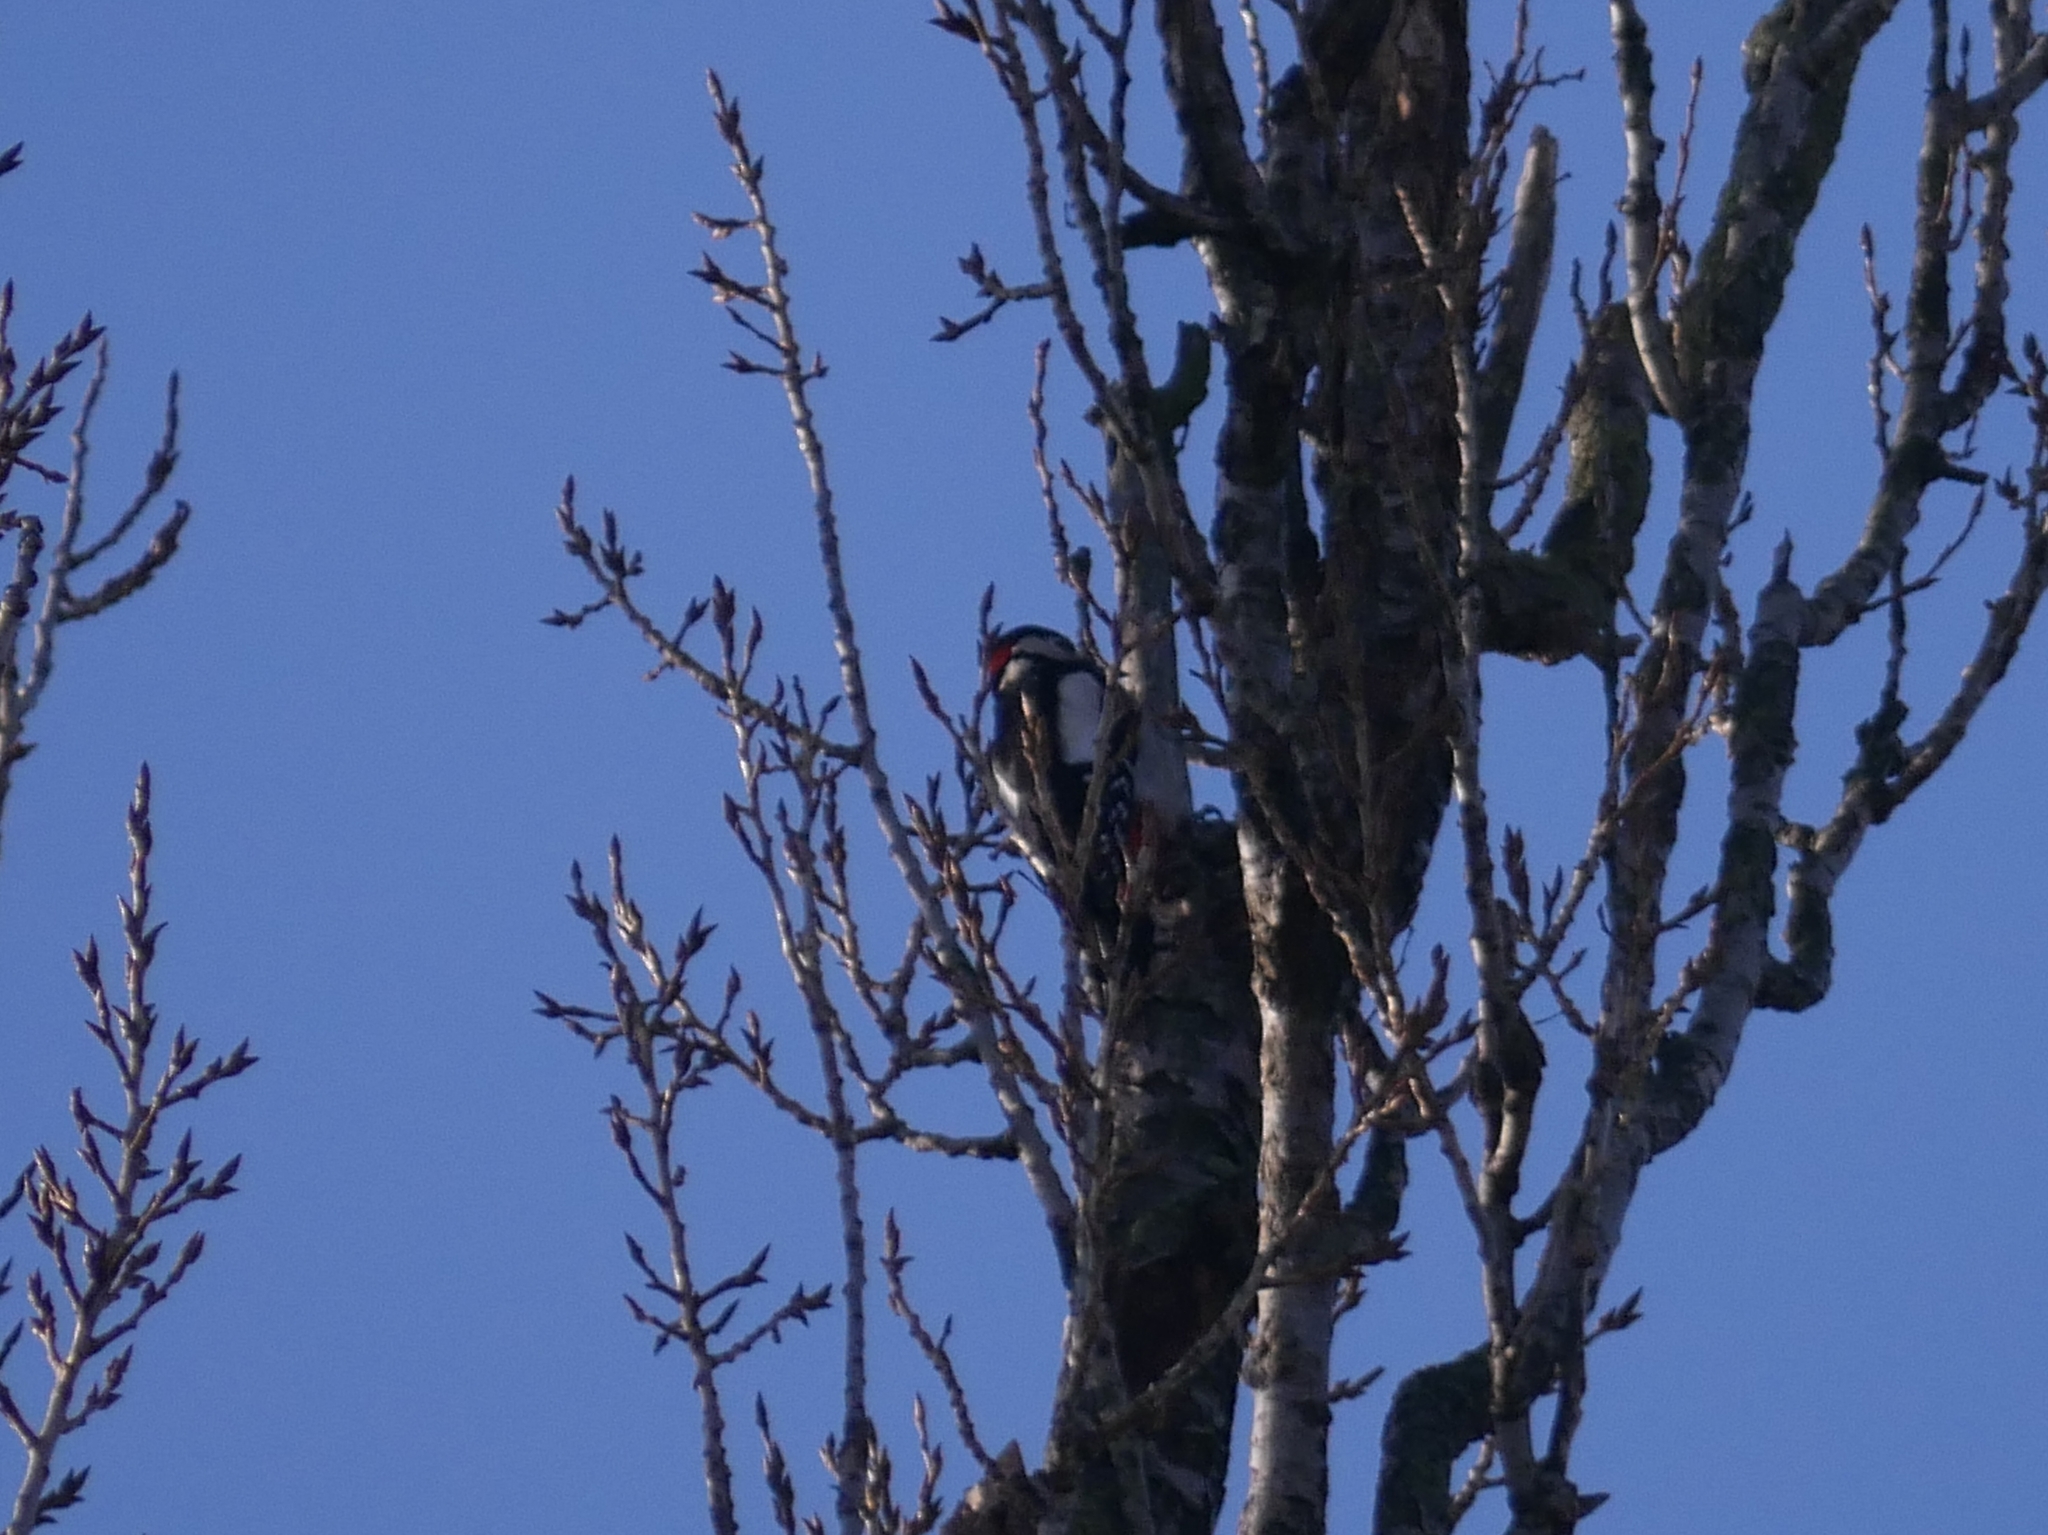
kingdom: Animalia
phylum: Chordata
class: Aves
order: Piciformes
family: Picidae
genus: Dendrocopos
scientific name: Dendrocopos major
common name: Great spotted woodpecker
